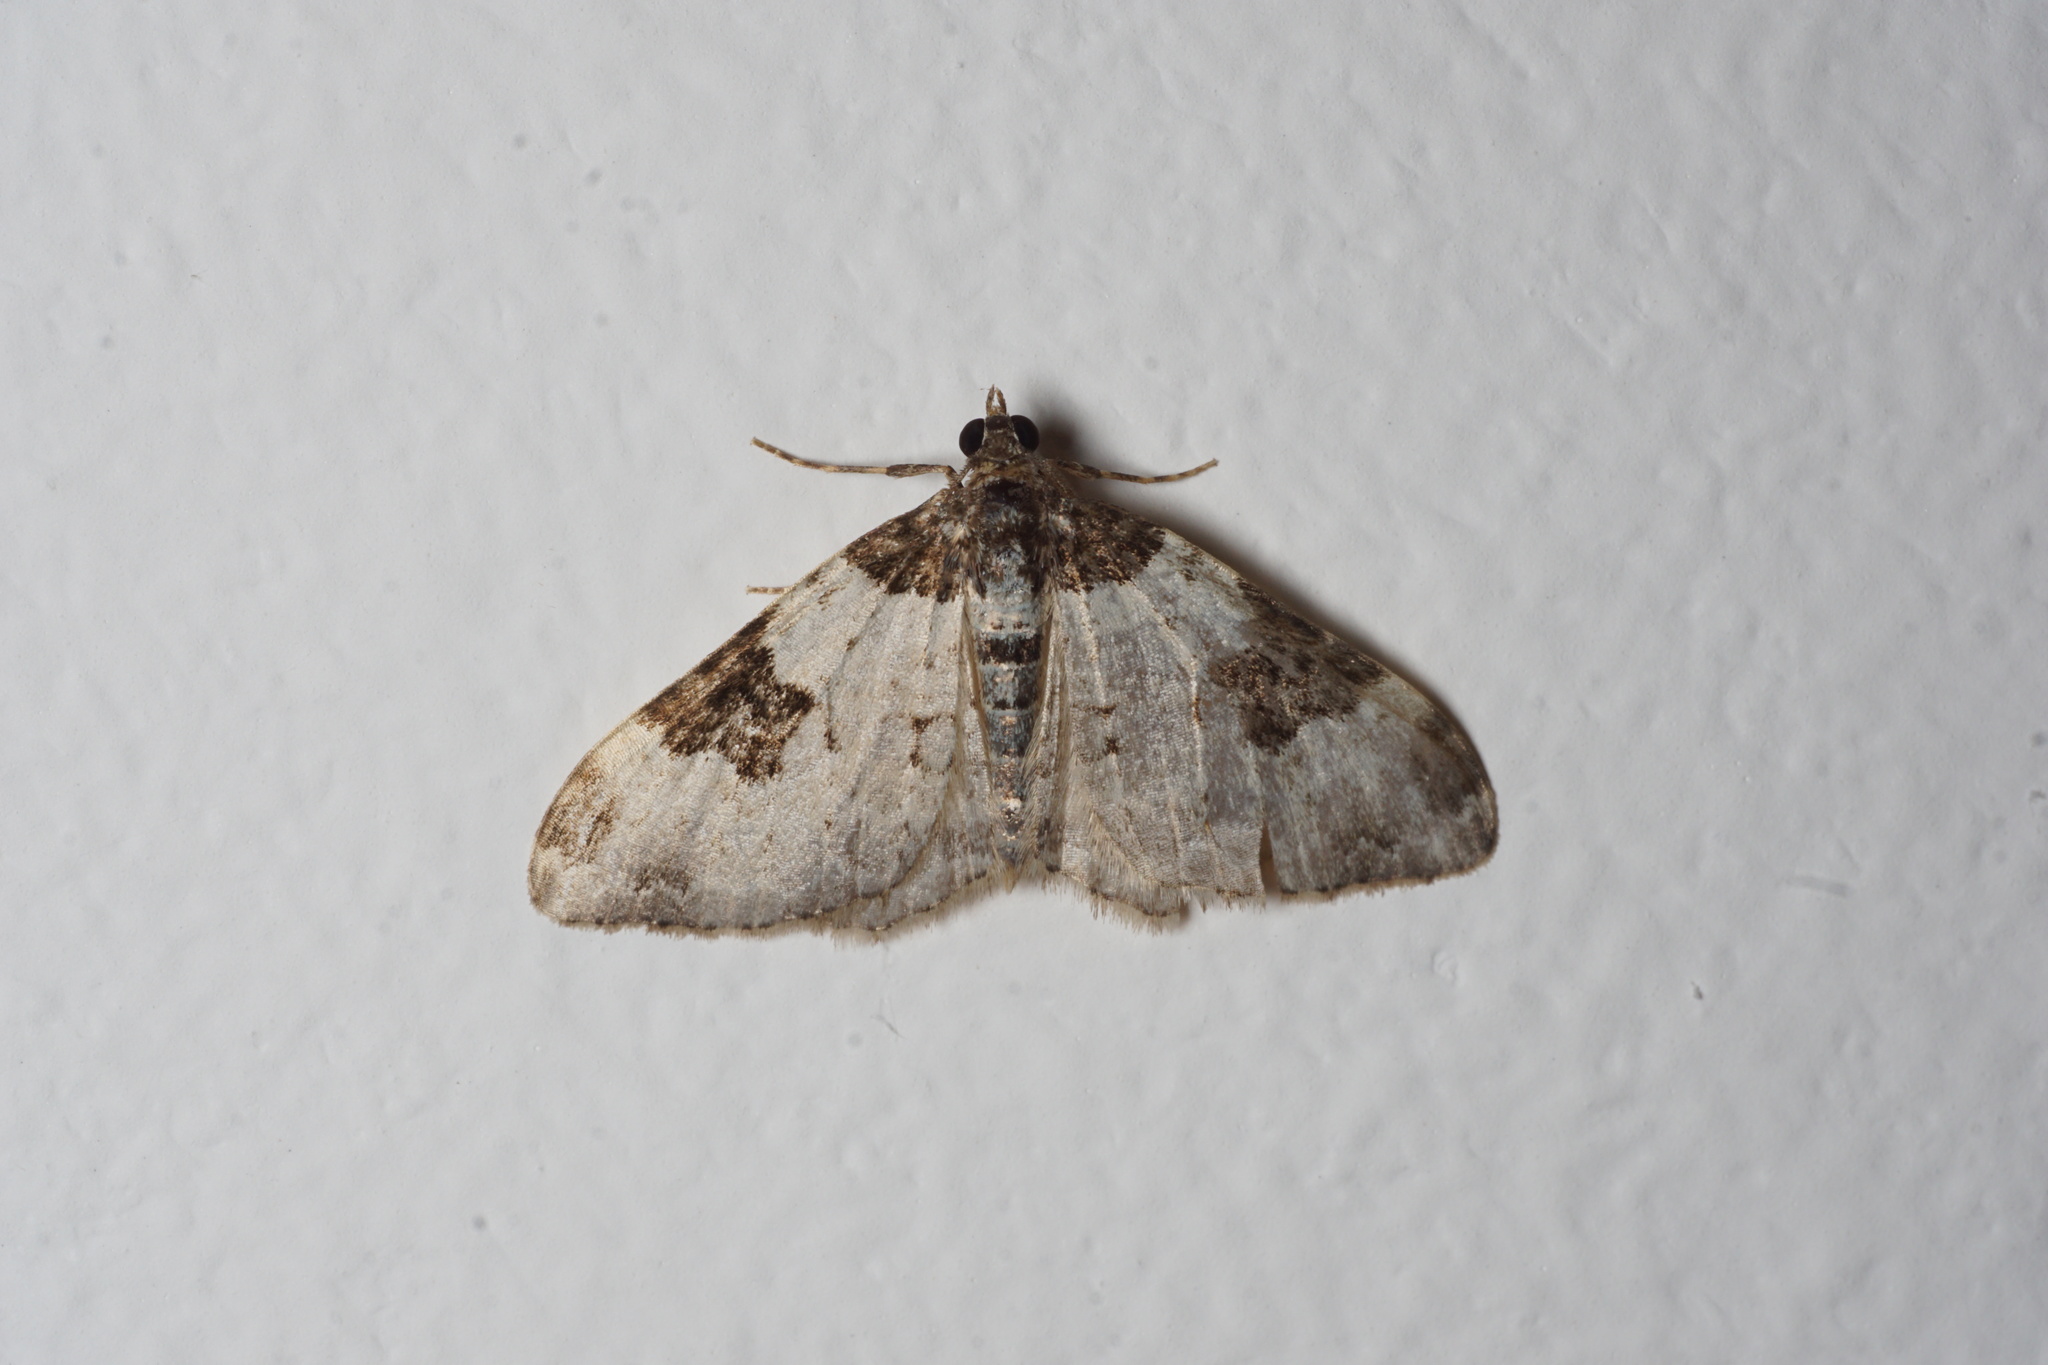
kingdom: Animalia
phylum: Arthropoda
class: Insecta
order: Lepidoptera
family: Geometridae
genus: Xanthorhoe
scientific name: Xanthorhoe fluctuata
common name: Garden carpet
